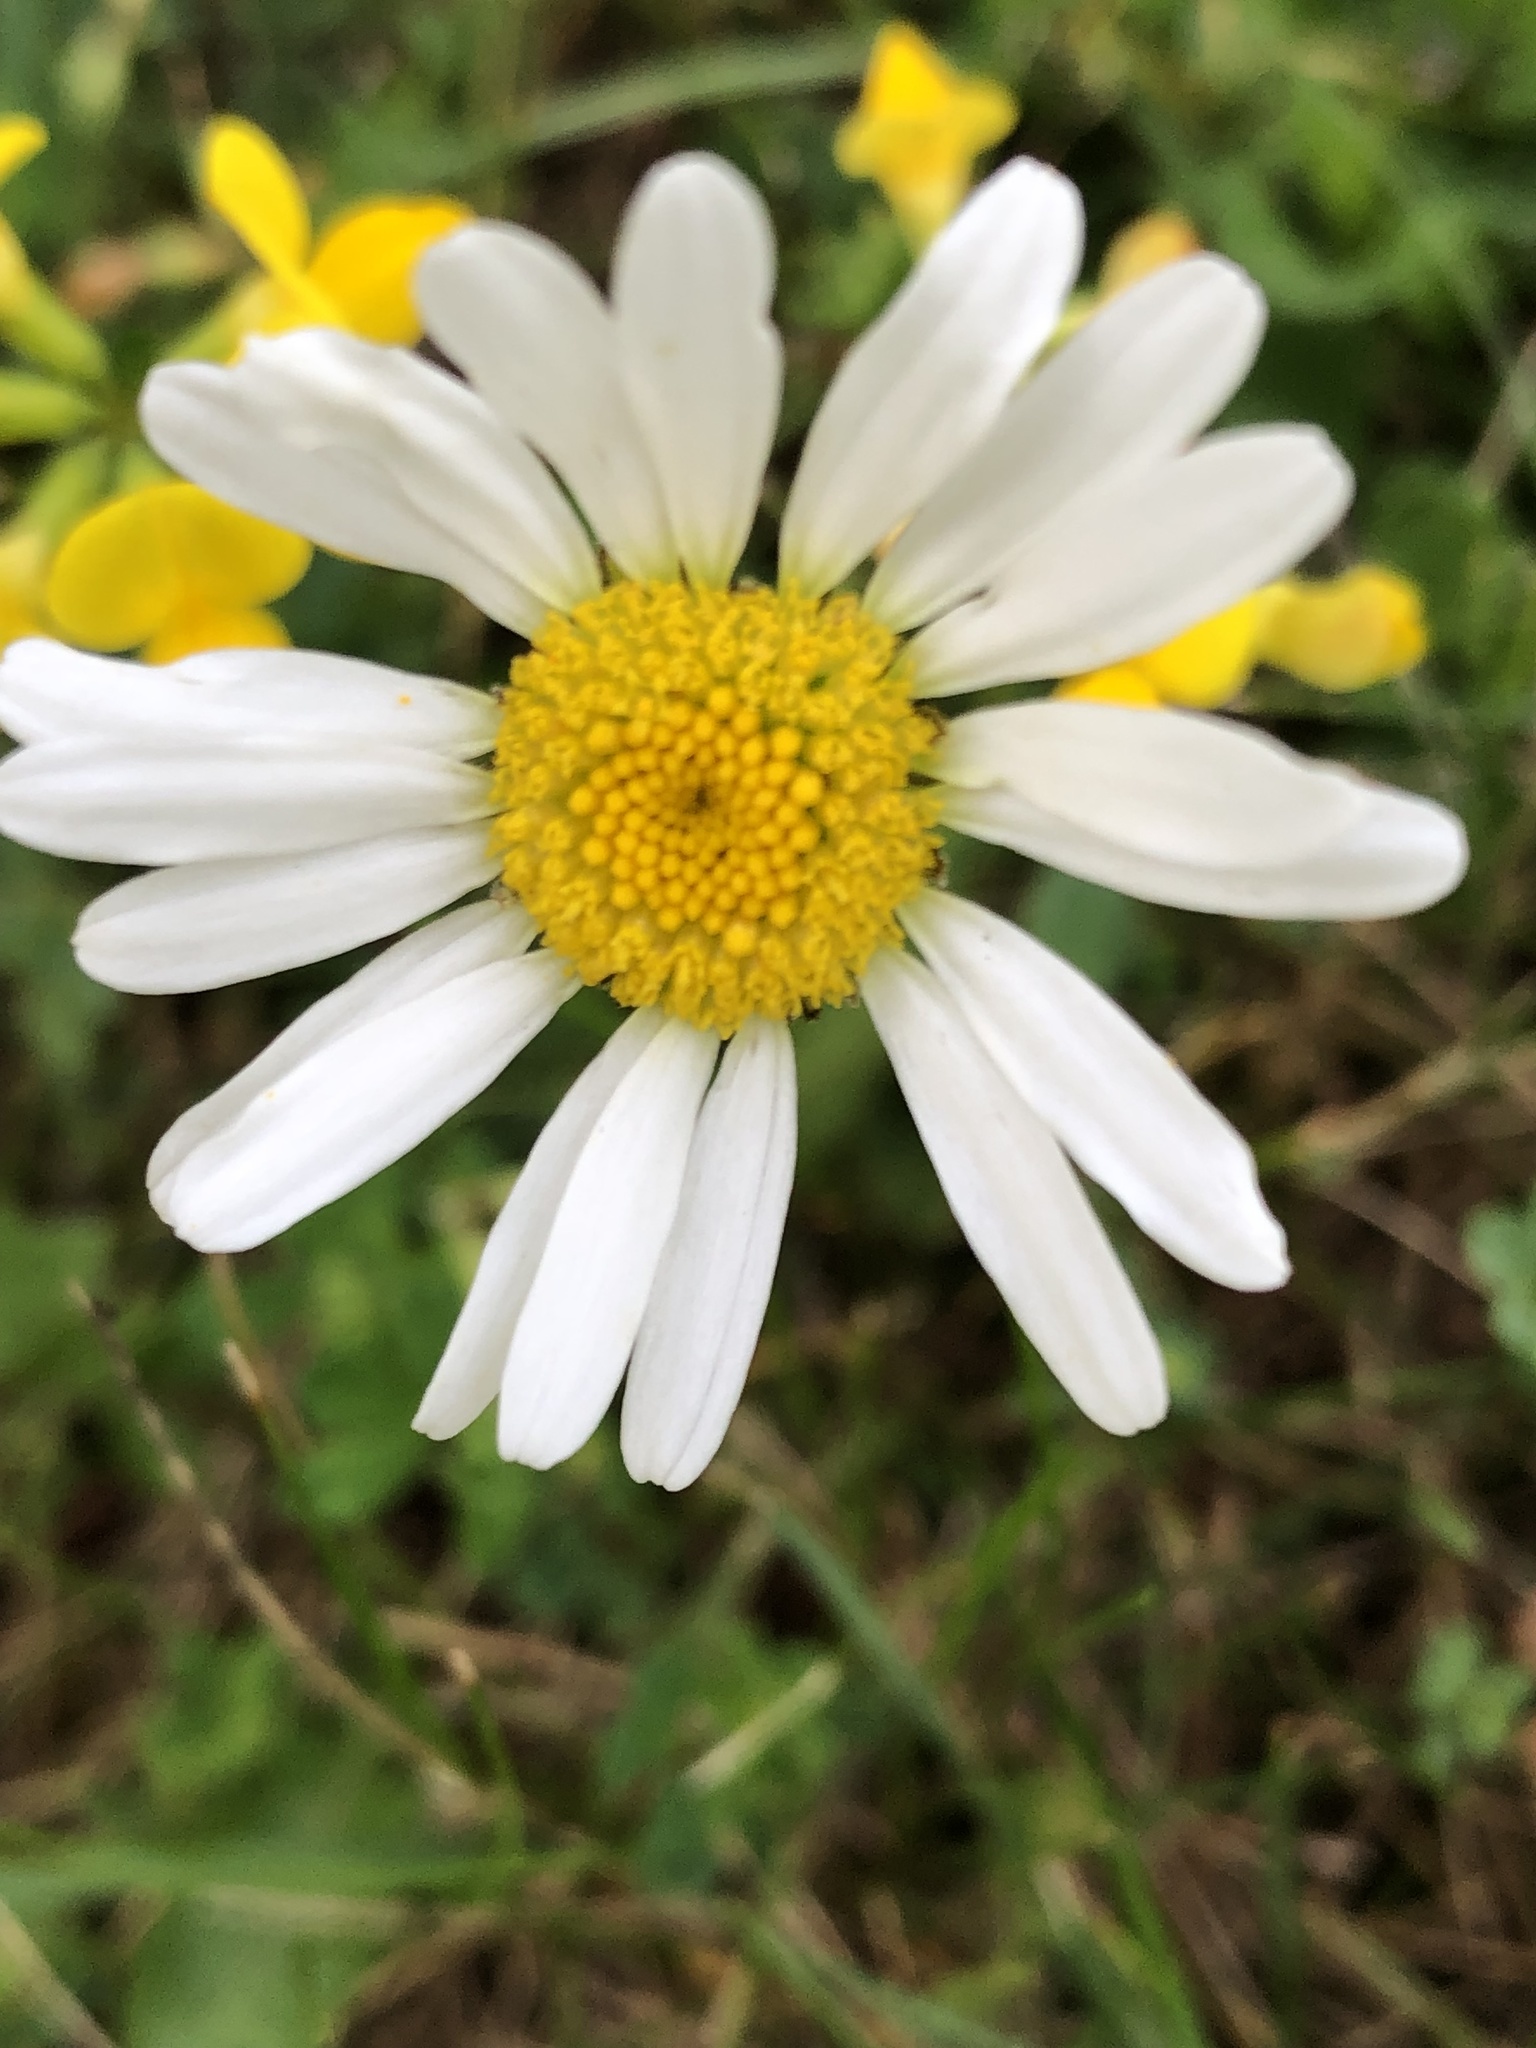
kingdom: Plantae
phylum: Tracheophyta
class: Magnoliopsida
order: Asterales
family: Asteraceae
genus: Leucanthemum
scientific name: Leucanthemum vulgare
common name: Oxeye daisy
